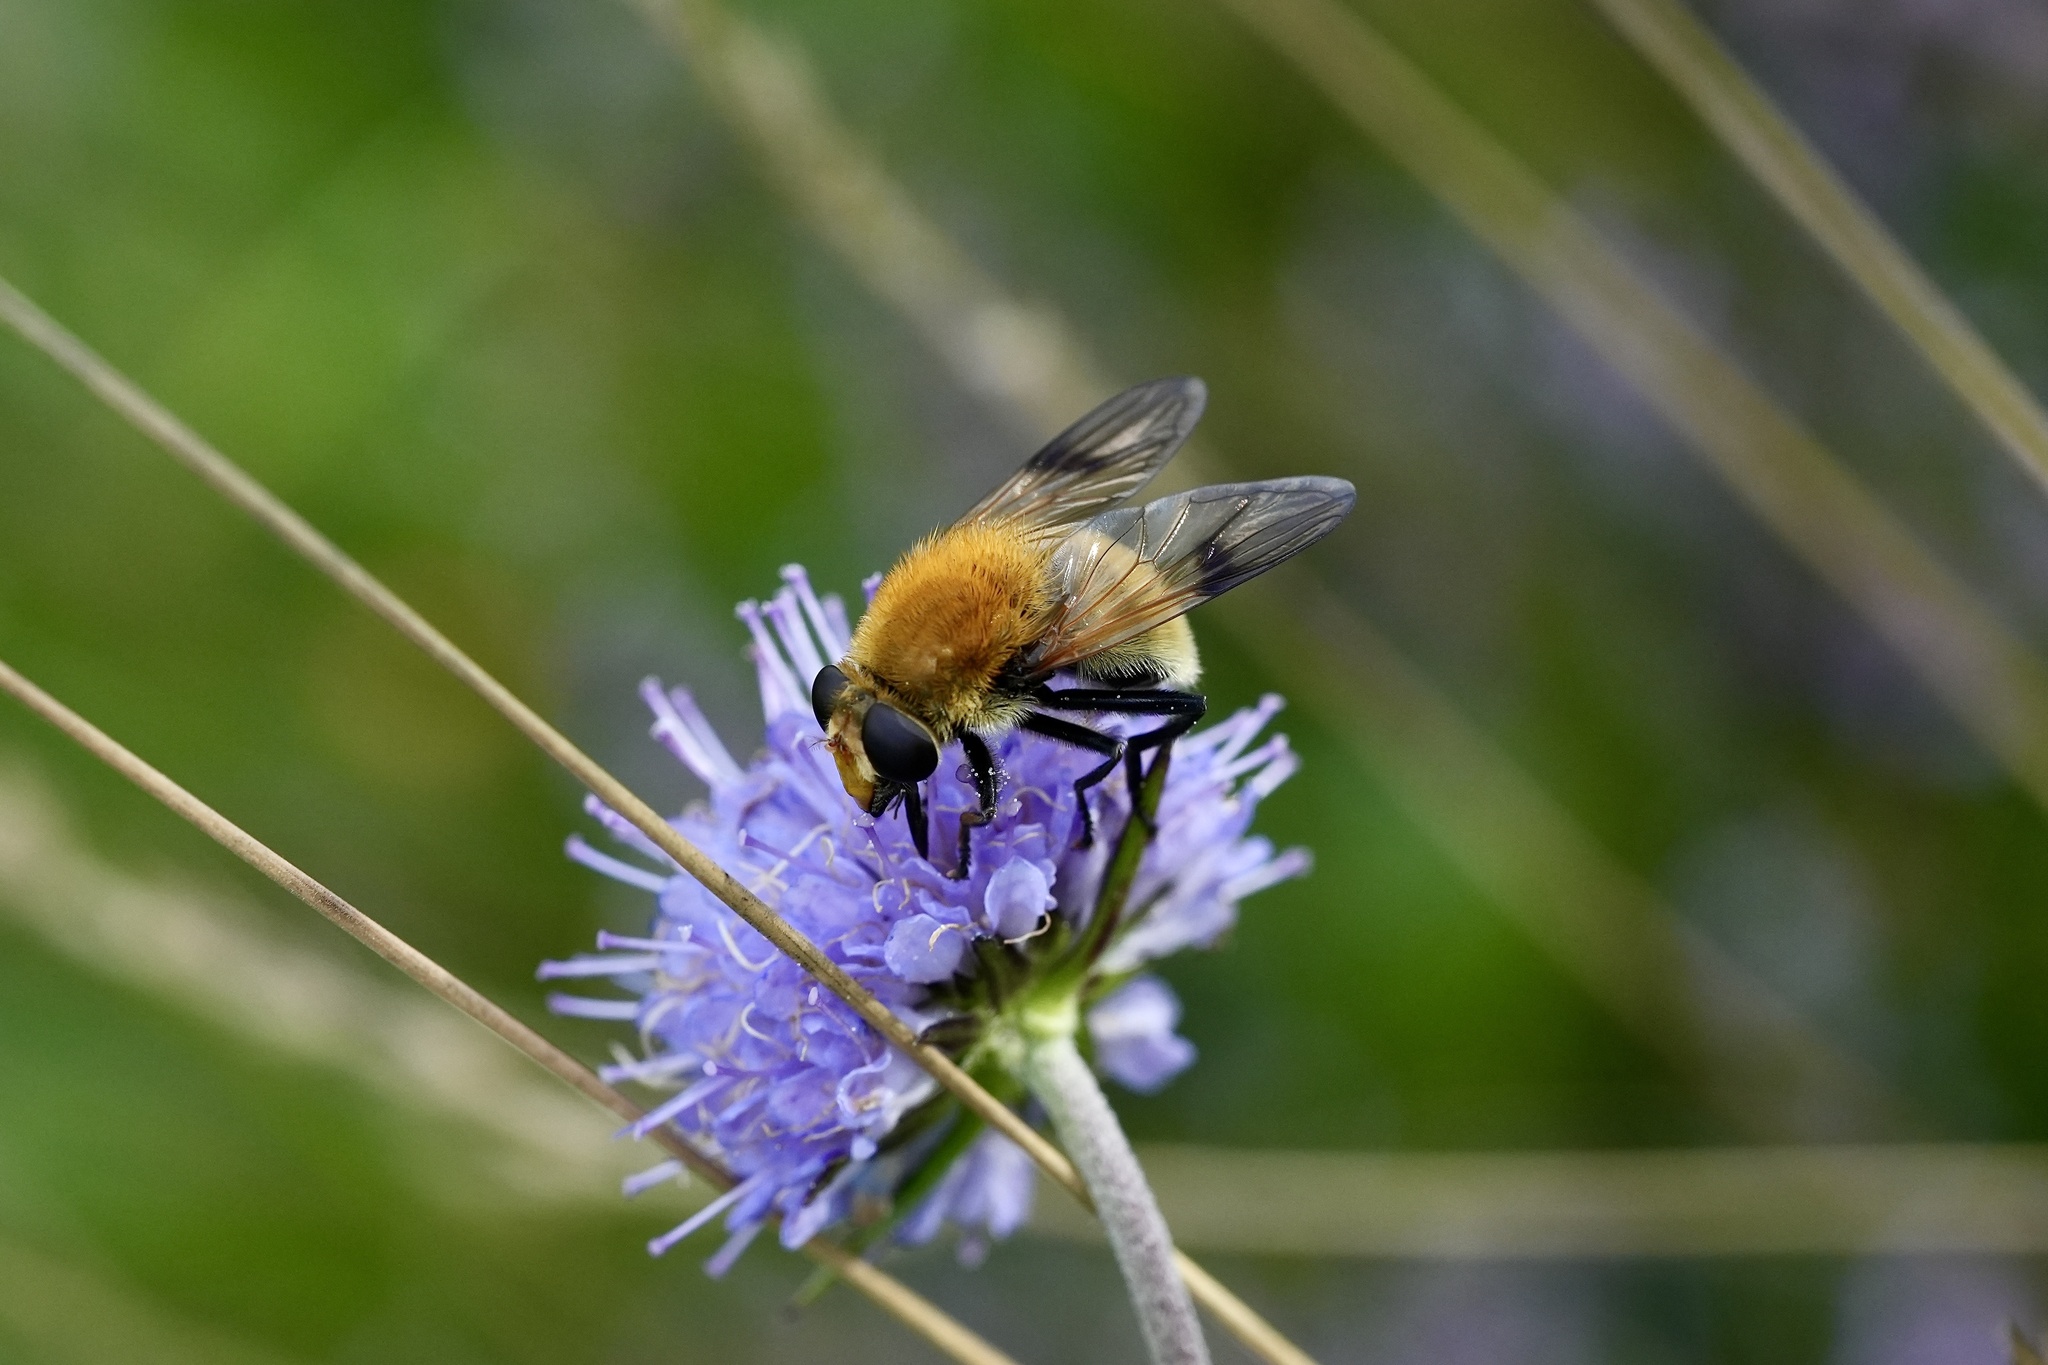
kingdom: Animalia
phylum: Arthropoda
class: Insecta
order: Diptera
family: Syrphidae
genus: Sericomyia
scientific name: Sericomyia superbiens
